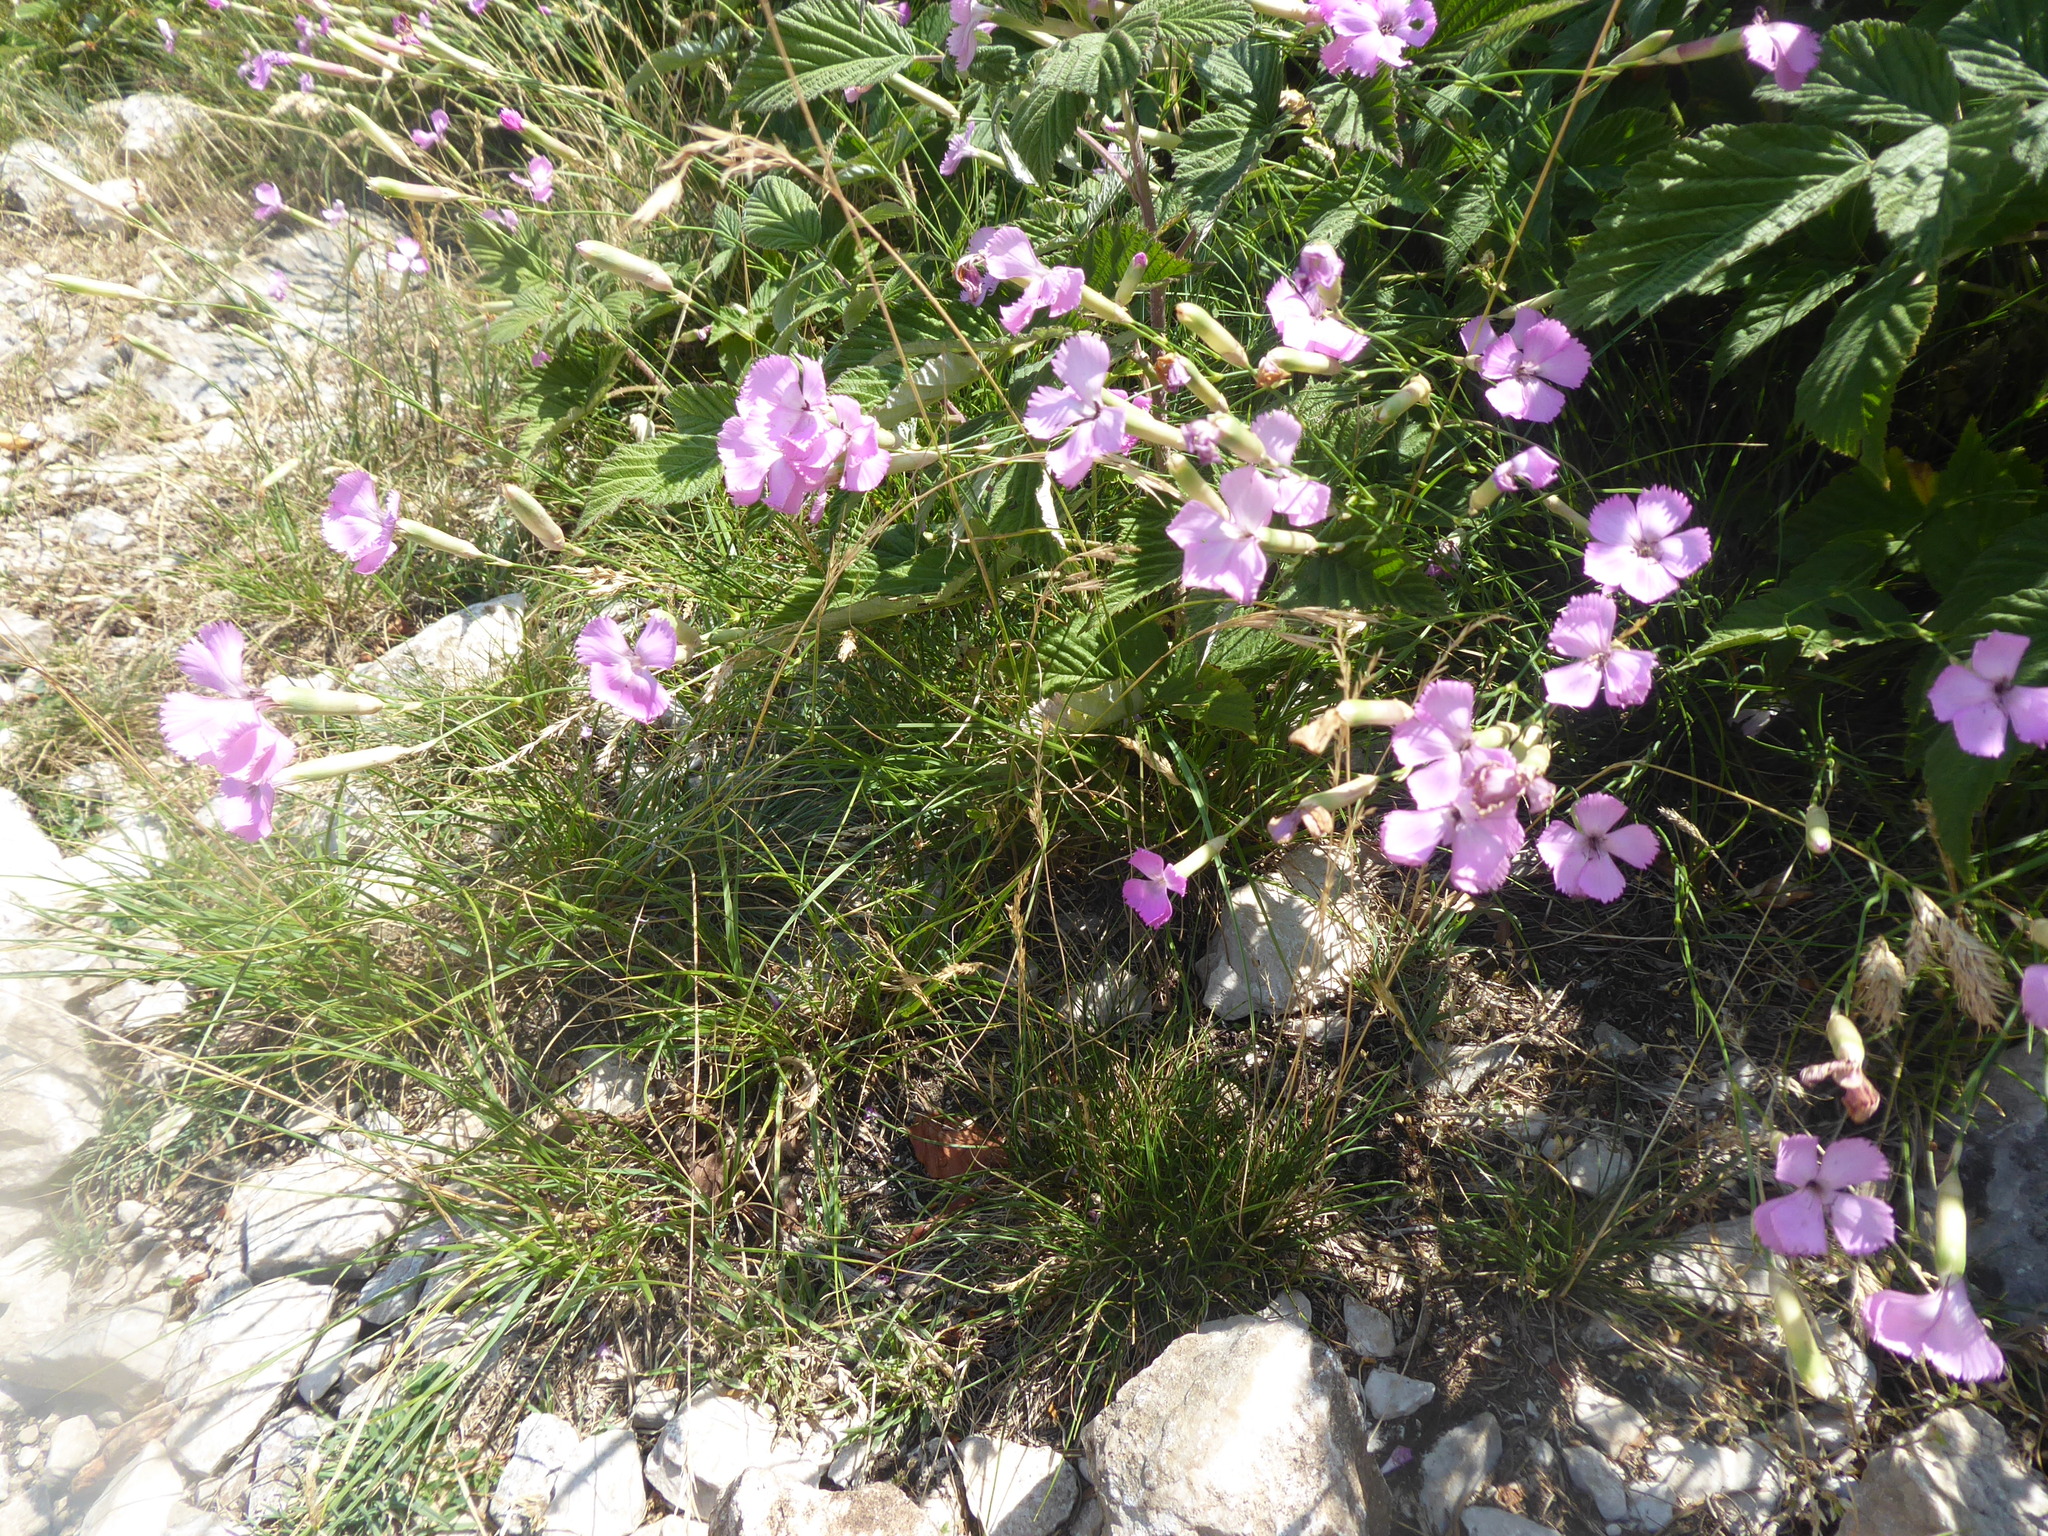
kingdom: Plantae
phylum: Tracheophyta
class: Magnoliopsida
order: Caryophyllales
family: Caryophyllaceae
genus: Dianthus
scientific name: Dianthus sylvestris
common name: Wood pink
